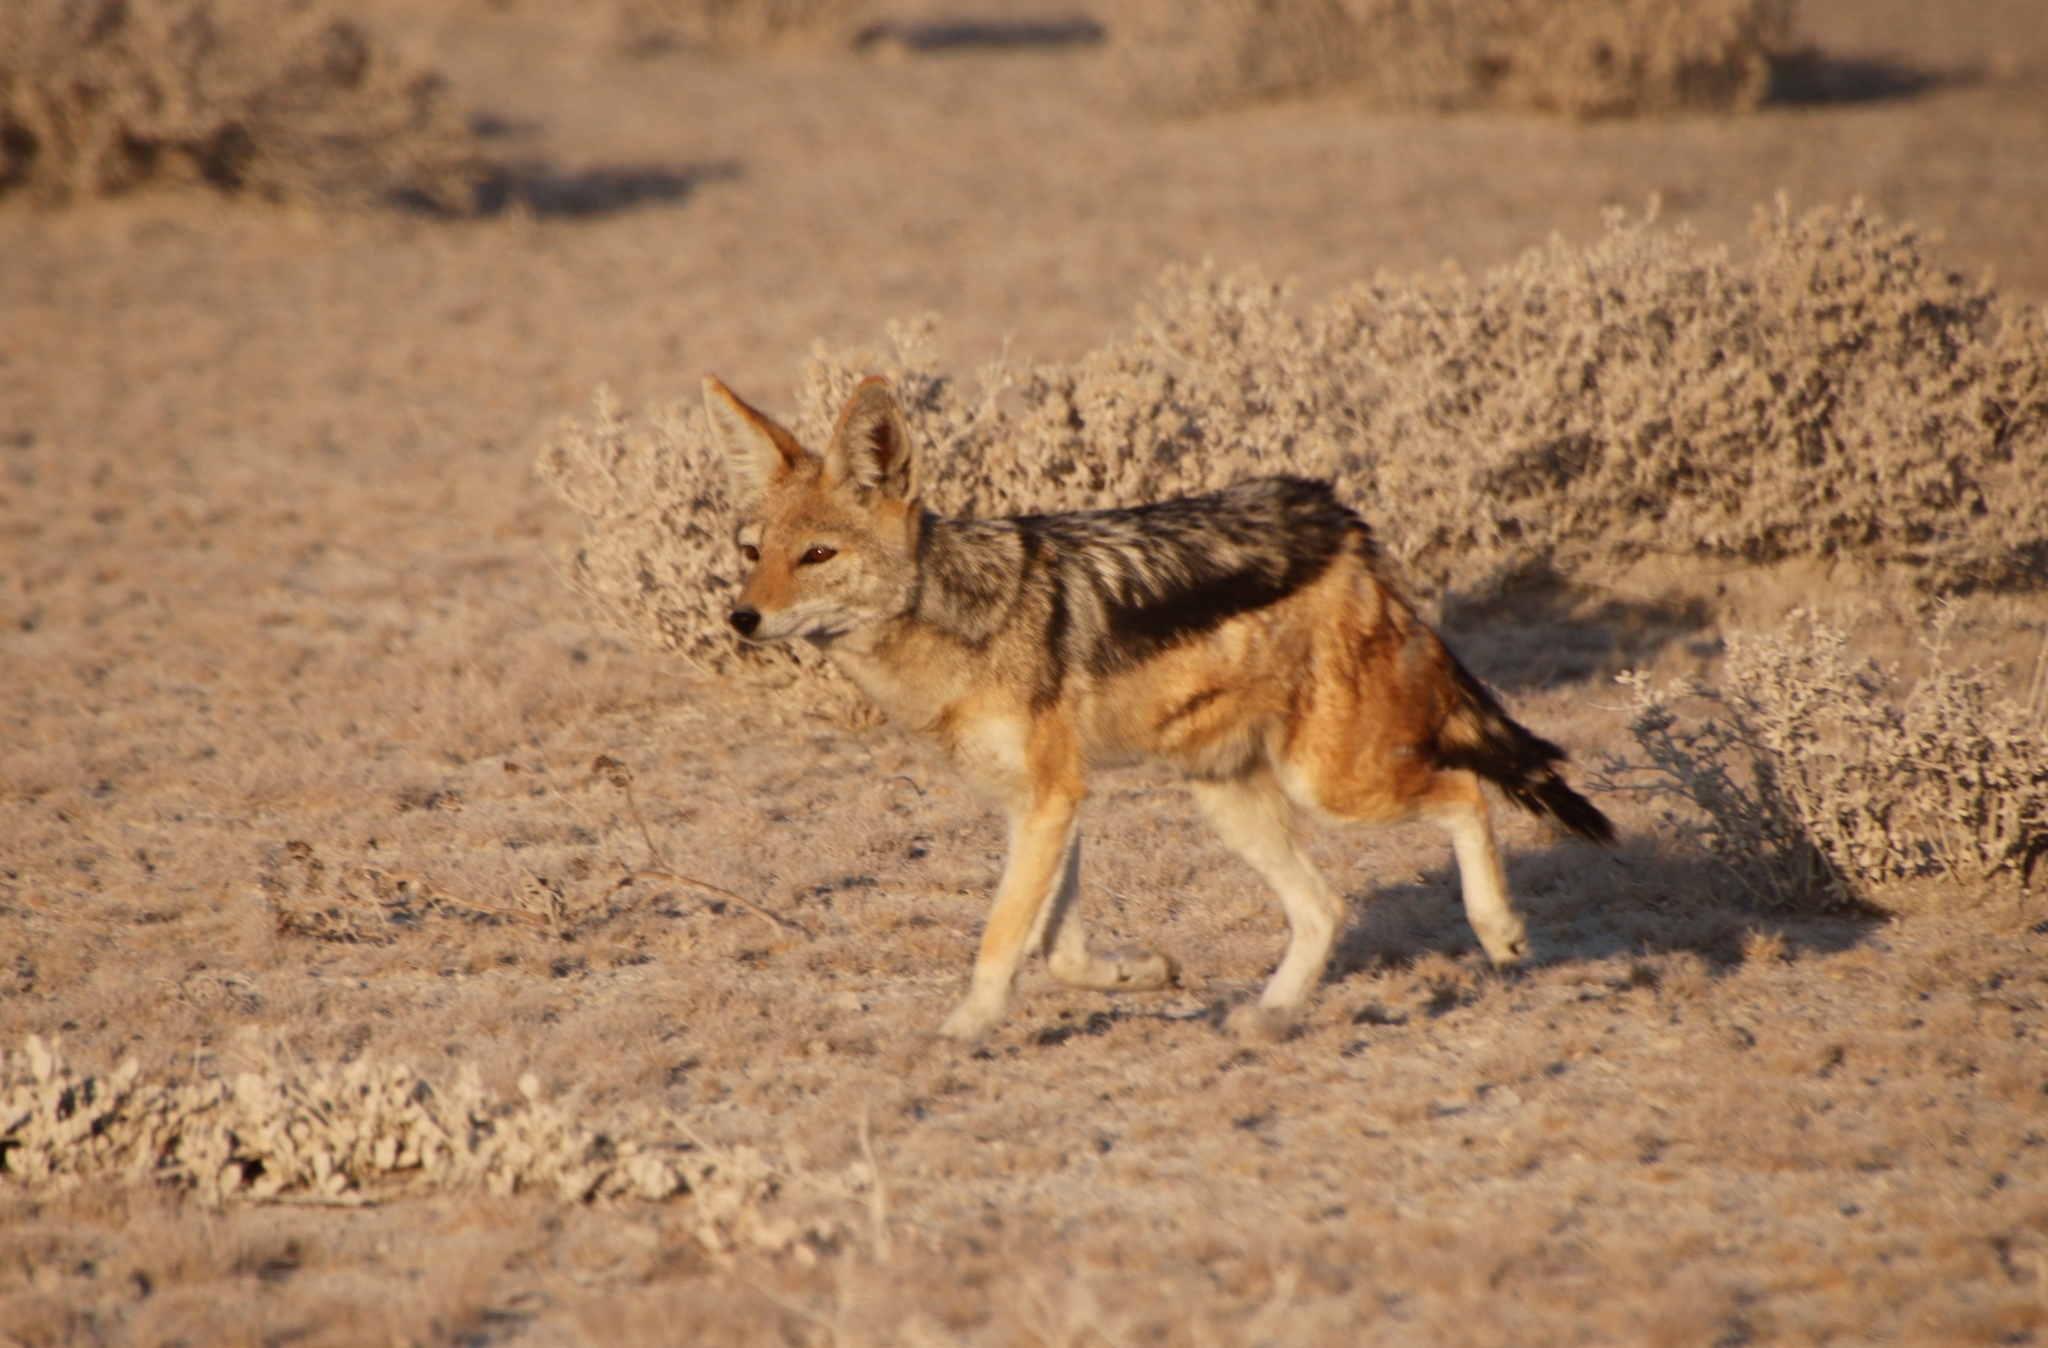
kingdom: Animalia
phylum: Chordata
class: Mammalia
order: Carnivora
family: Canidae
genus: Lupulella
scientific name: Lupulella
